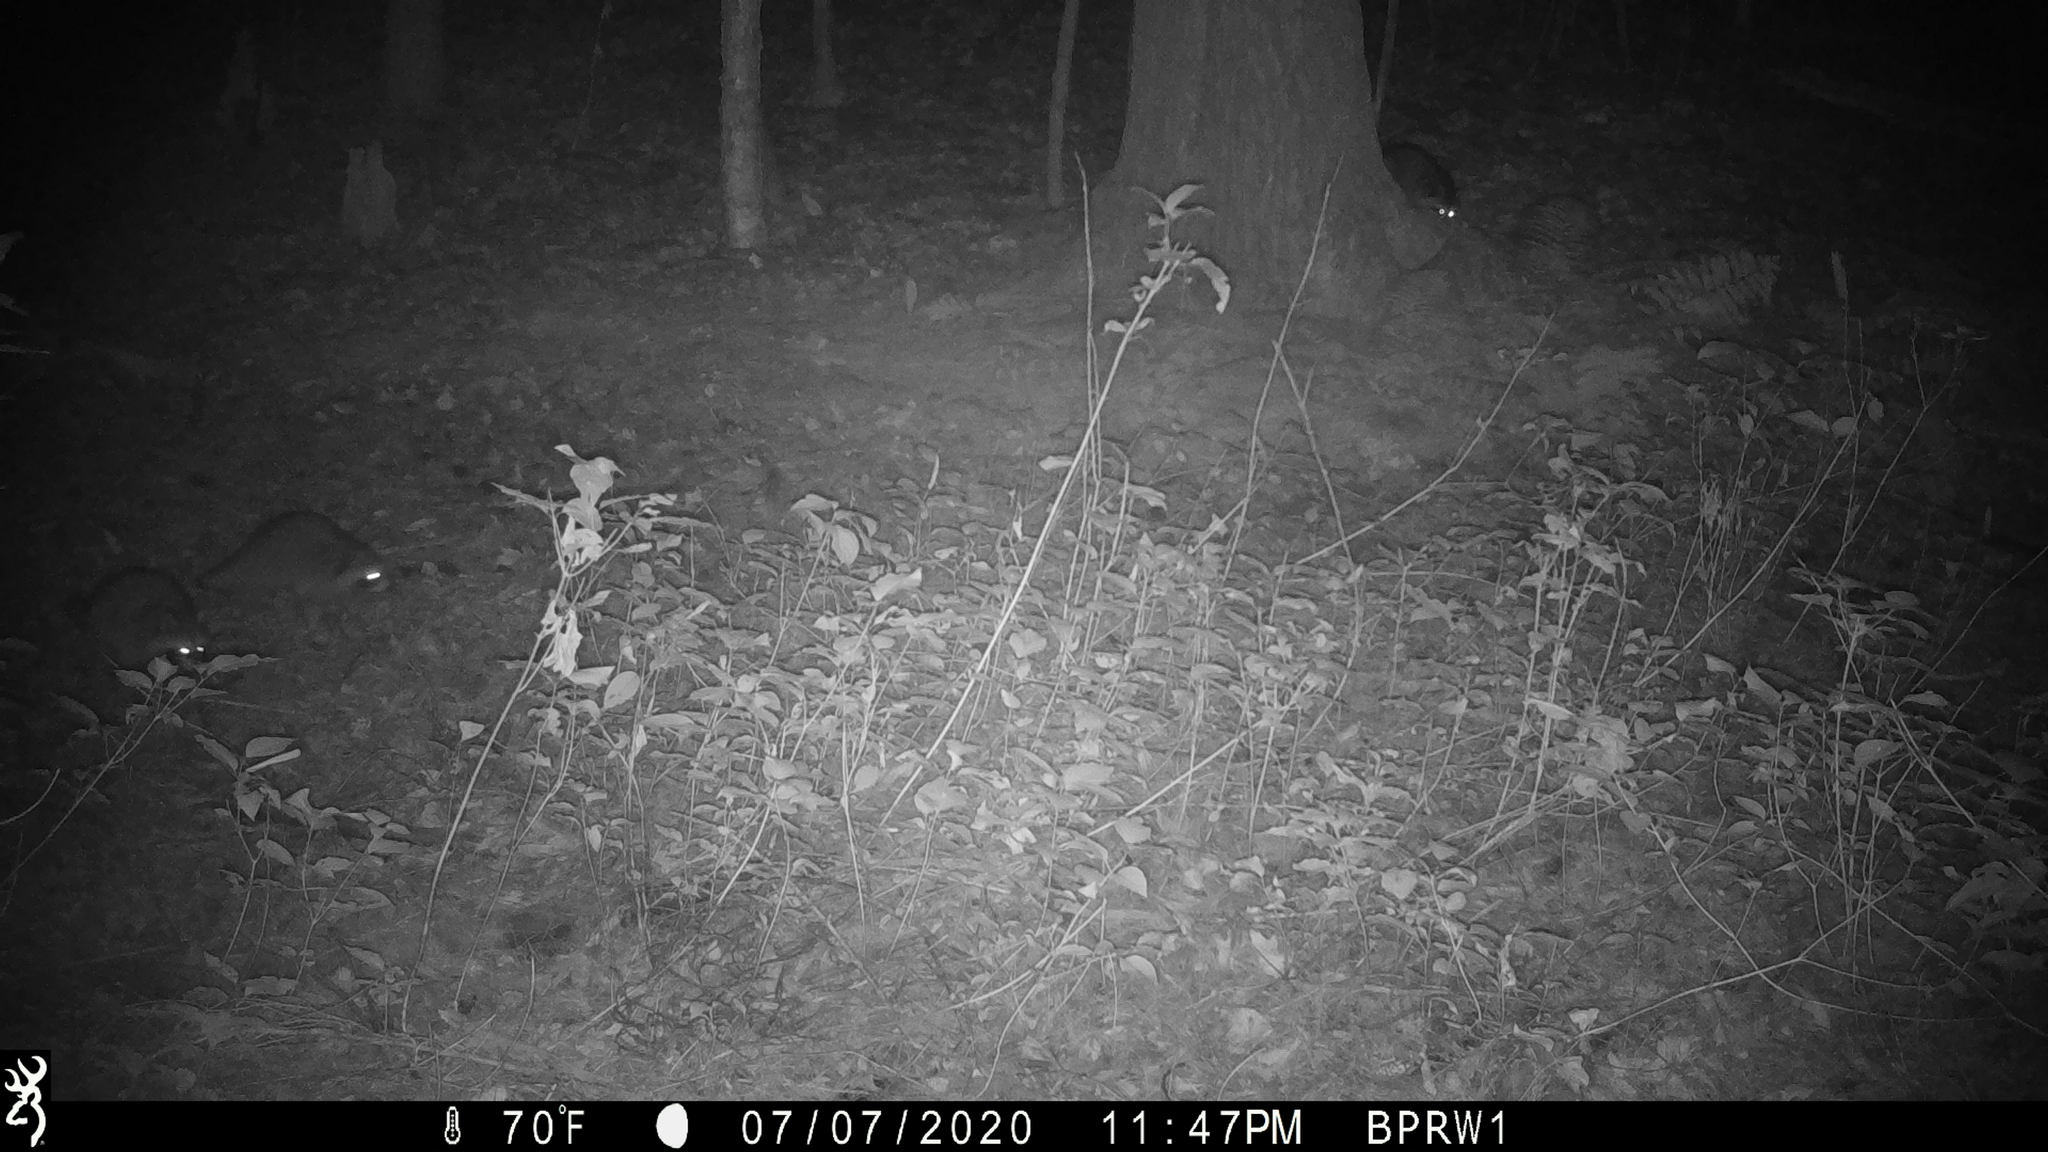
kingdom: Animalia
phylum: Chordata
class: Mammalia
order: Carnivora
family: Procyonidae
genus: Procyon
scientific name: Procyon lotor
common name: Raccoon
